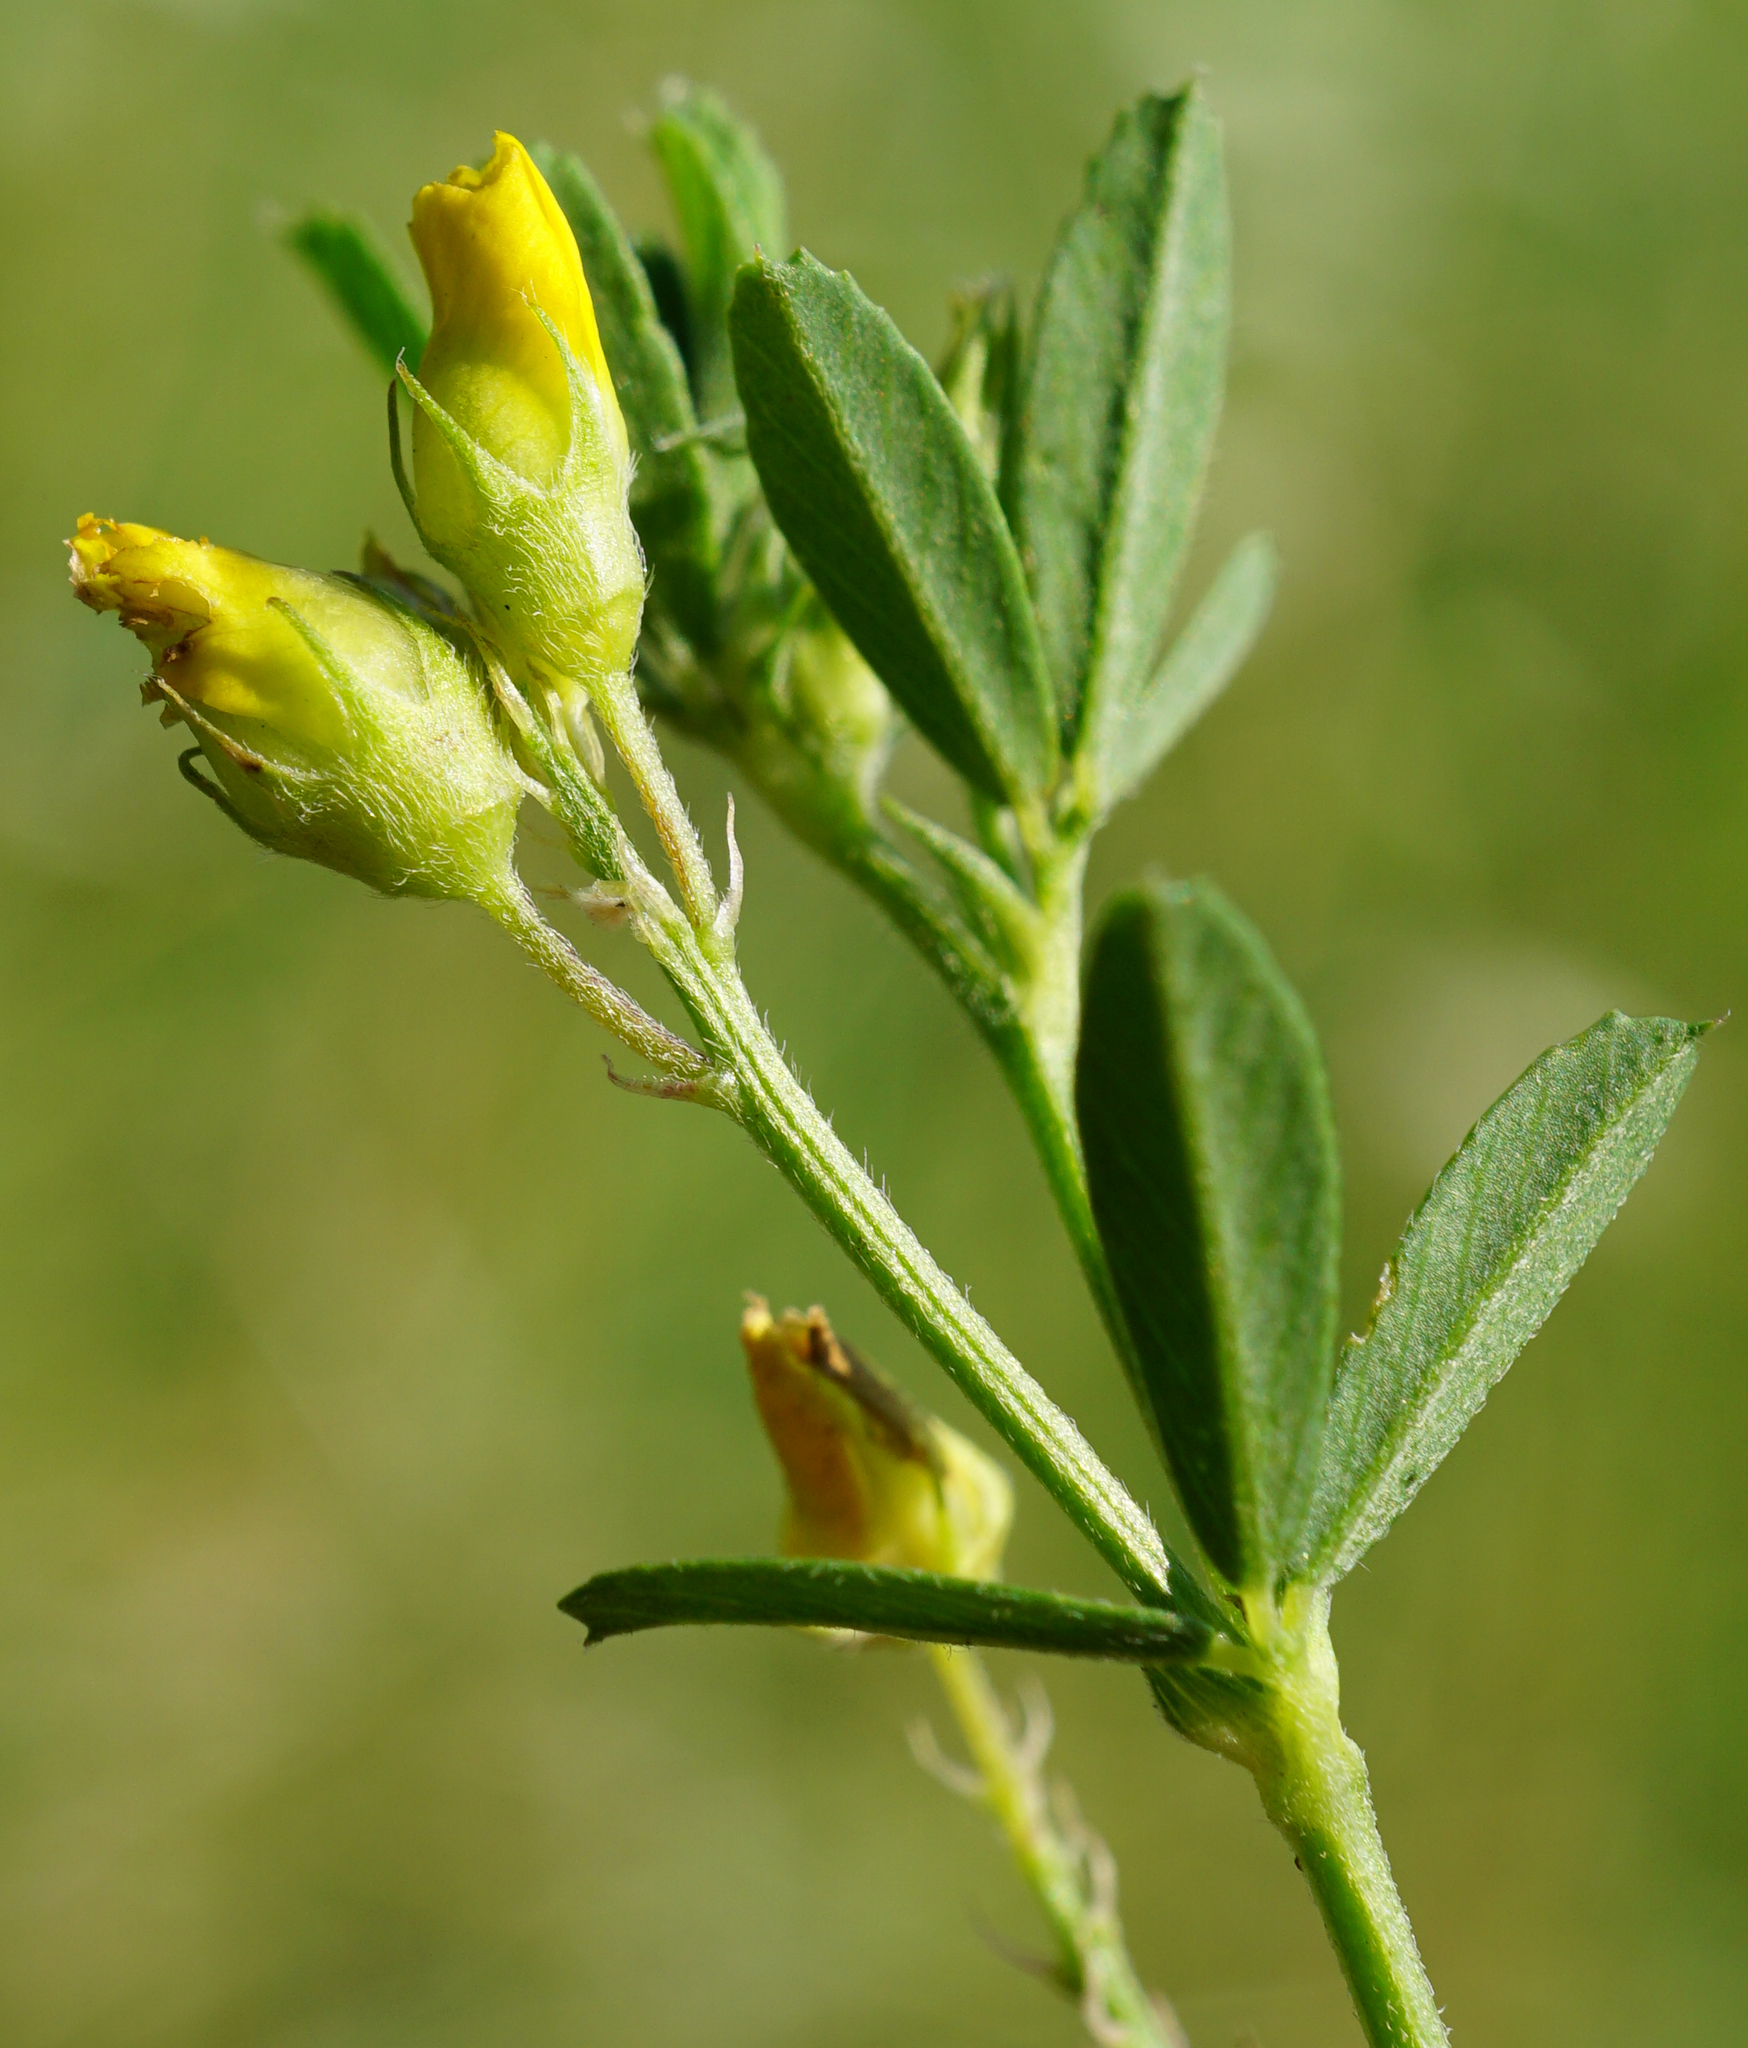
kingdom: Plantae
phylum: Tracheophyta
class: Magnoliopsida
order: Fabales
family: Fabaceae
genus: Medicago
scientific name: Medicago falcata
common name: Sickle medick
